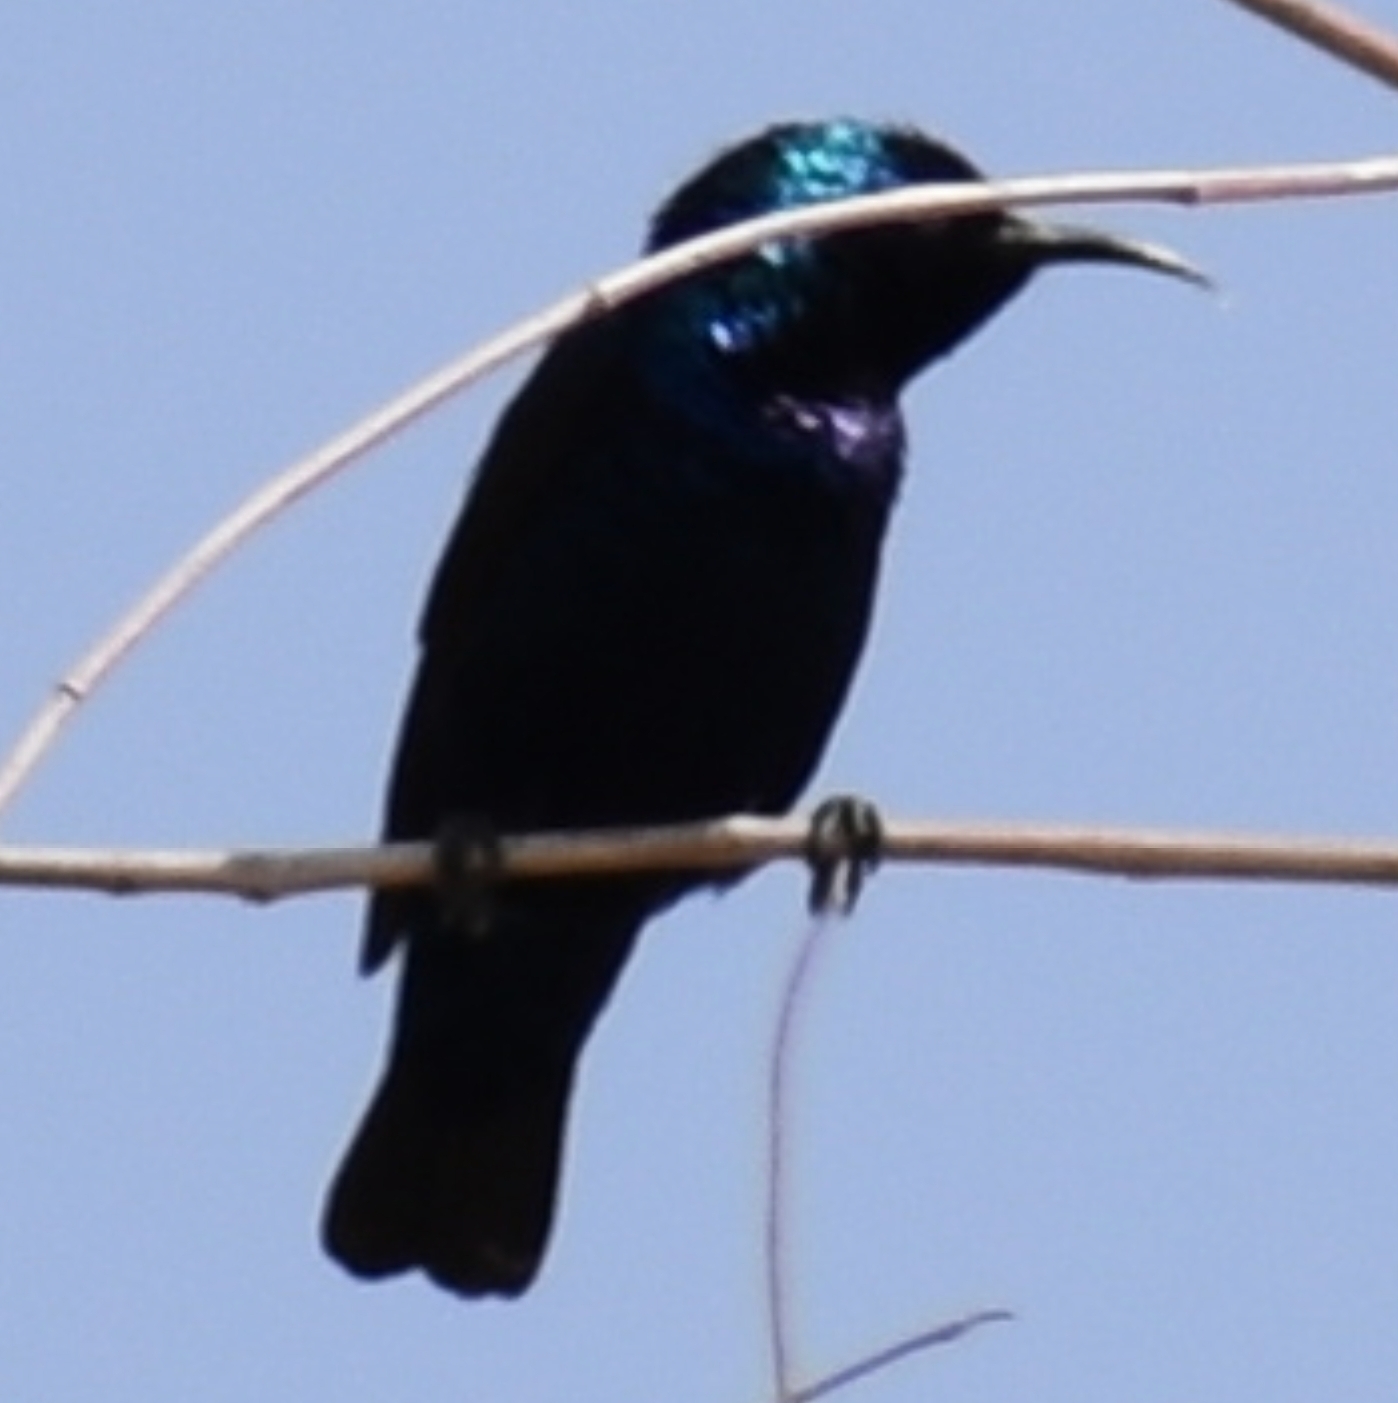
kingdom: Animalia
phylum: Chordata
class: Aves
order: Passeriformes
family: Nectariniidae
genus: Cinnyris
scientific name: Cinnyris asiaticus
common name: Purple sunbird
